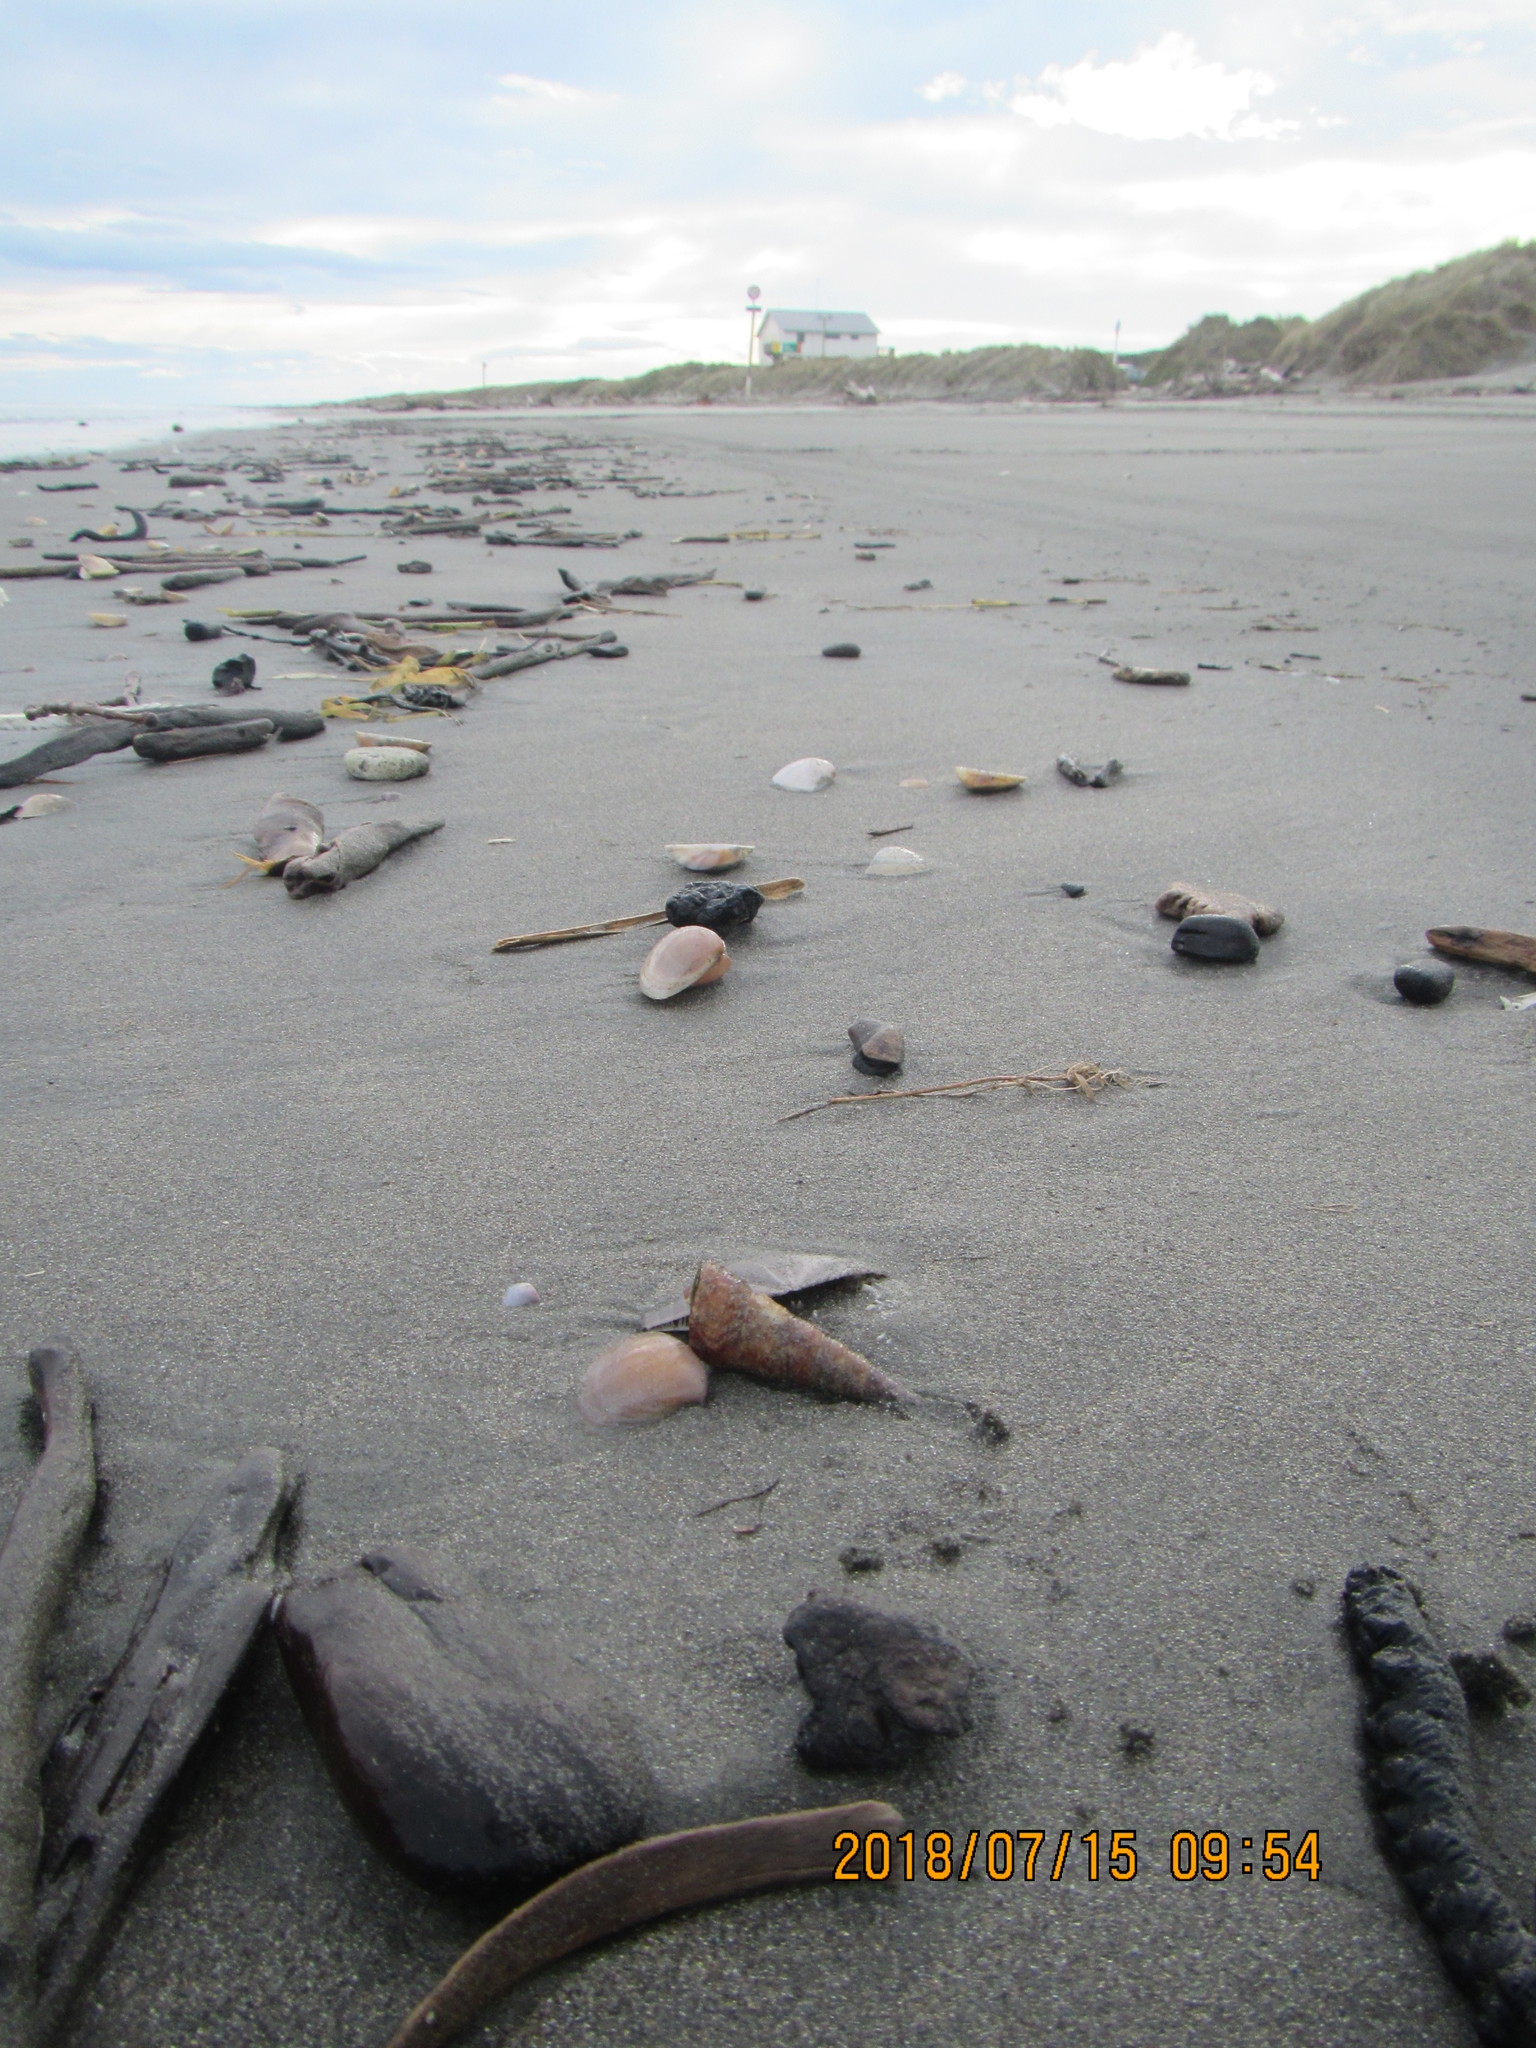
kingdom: Animalia
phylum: Mollusca
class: Gastropoda
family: Turritellidae
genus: Maoricolpus
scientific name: Maoricolpus roseus
